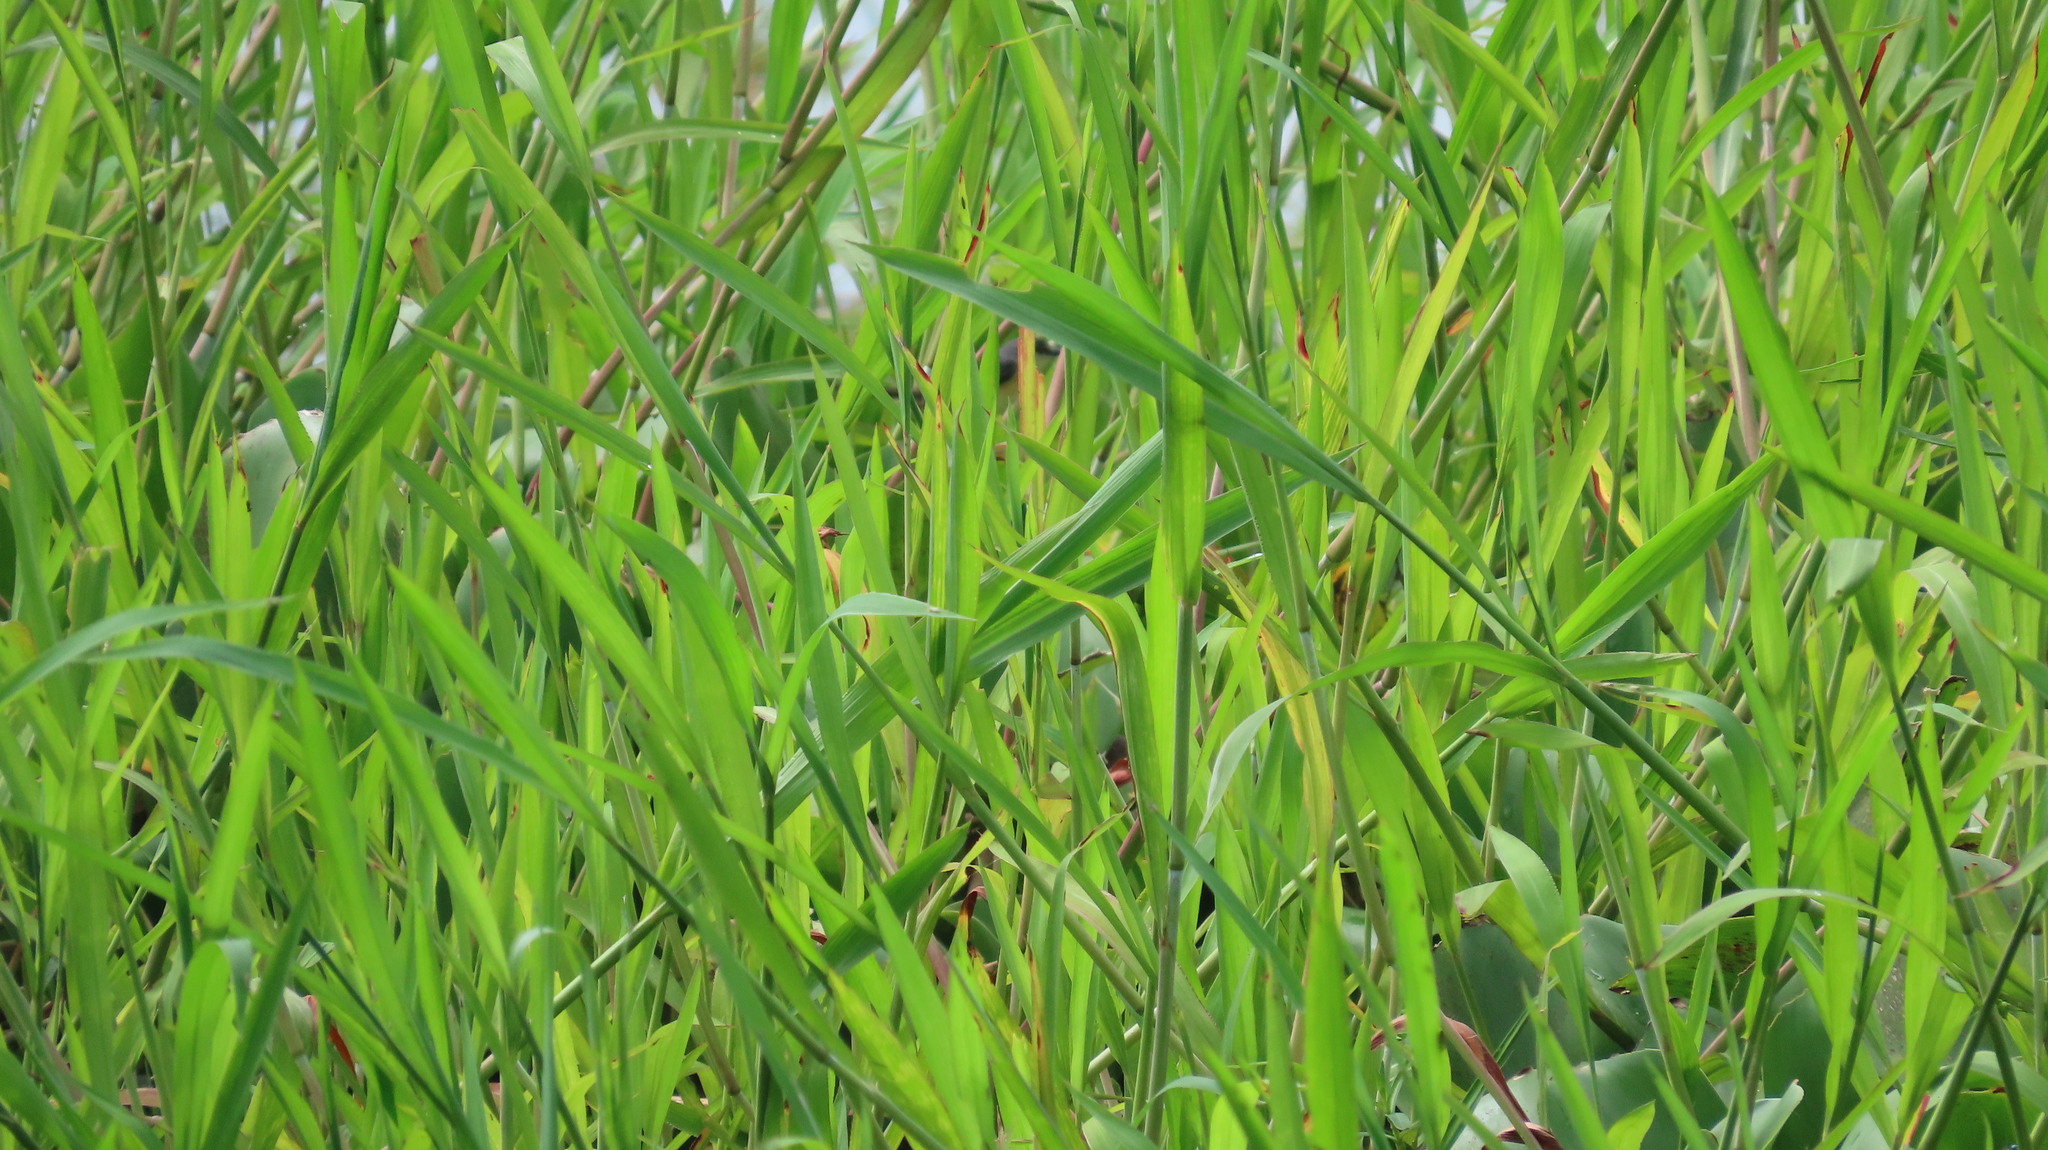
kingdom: Animalia
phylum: Chordata
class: Aves
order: Passeriformes
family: Cisticolidae
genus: Prinia
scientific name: Prinia socialis
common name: Ashy prinia
